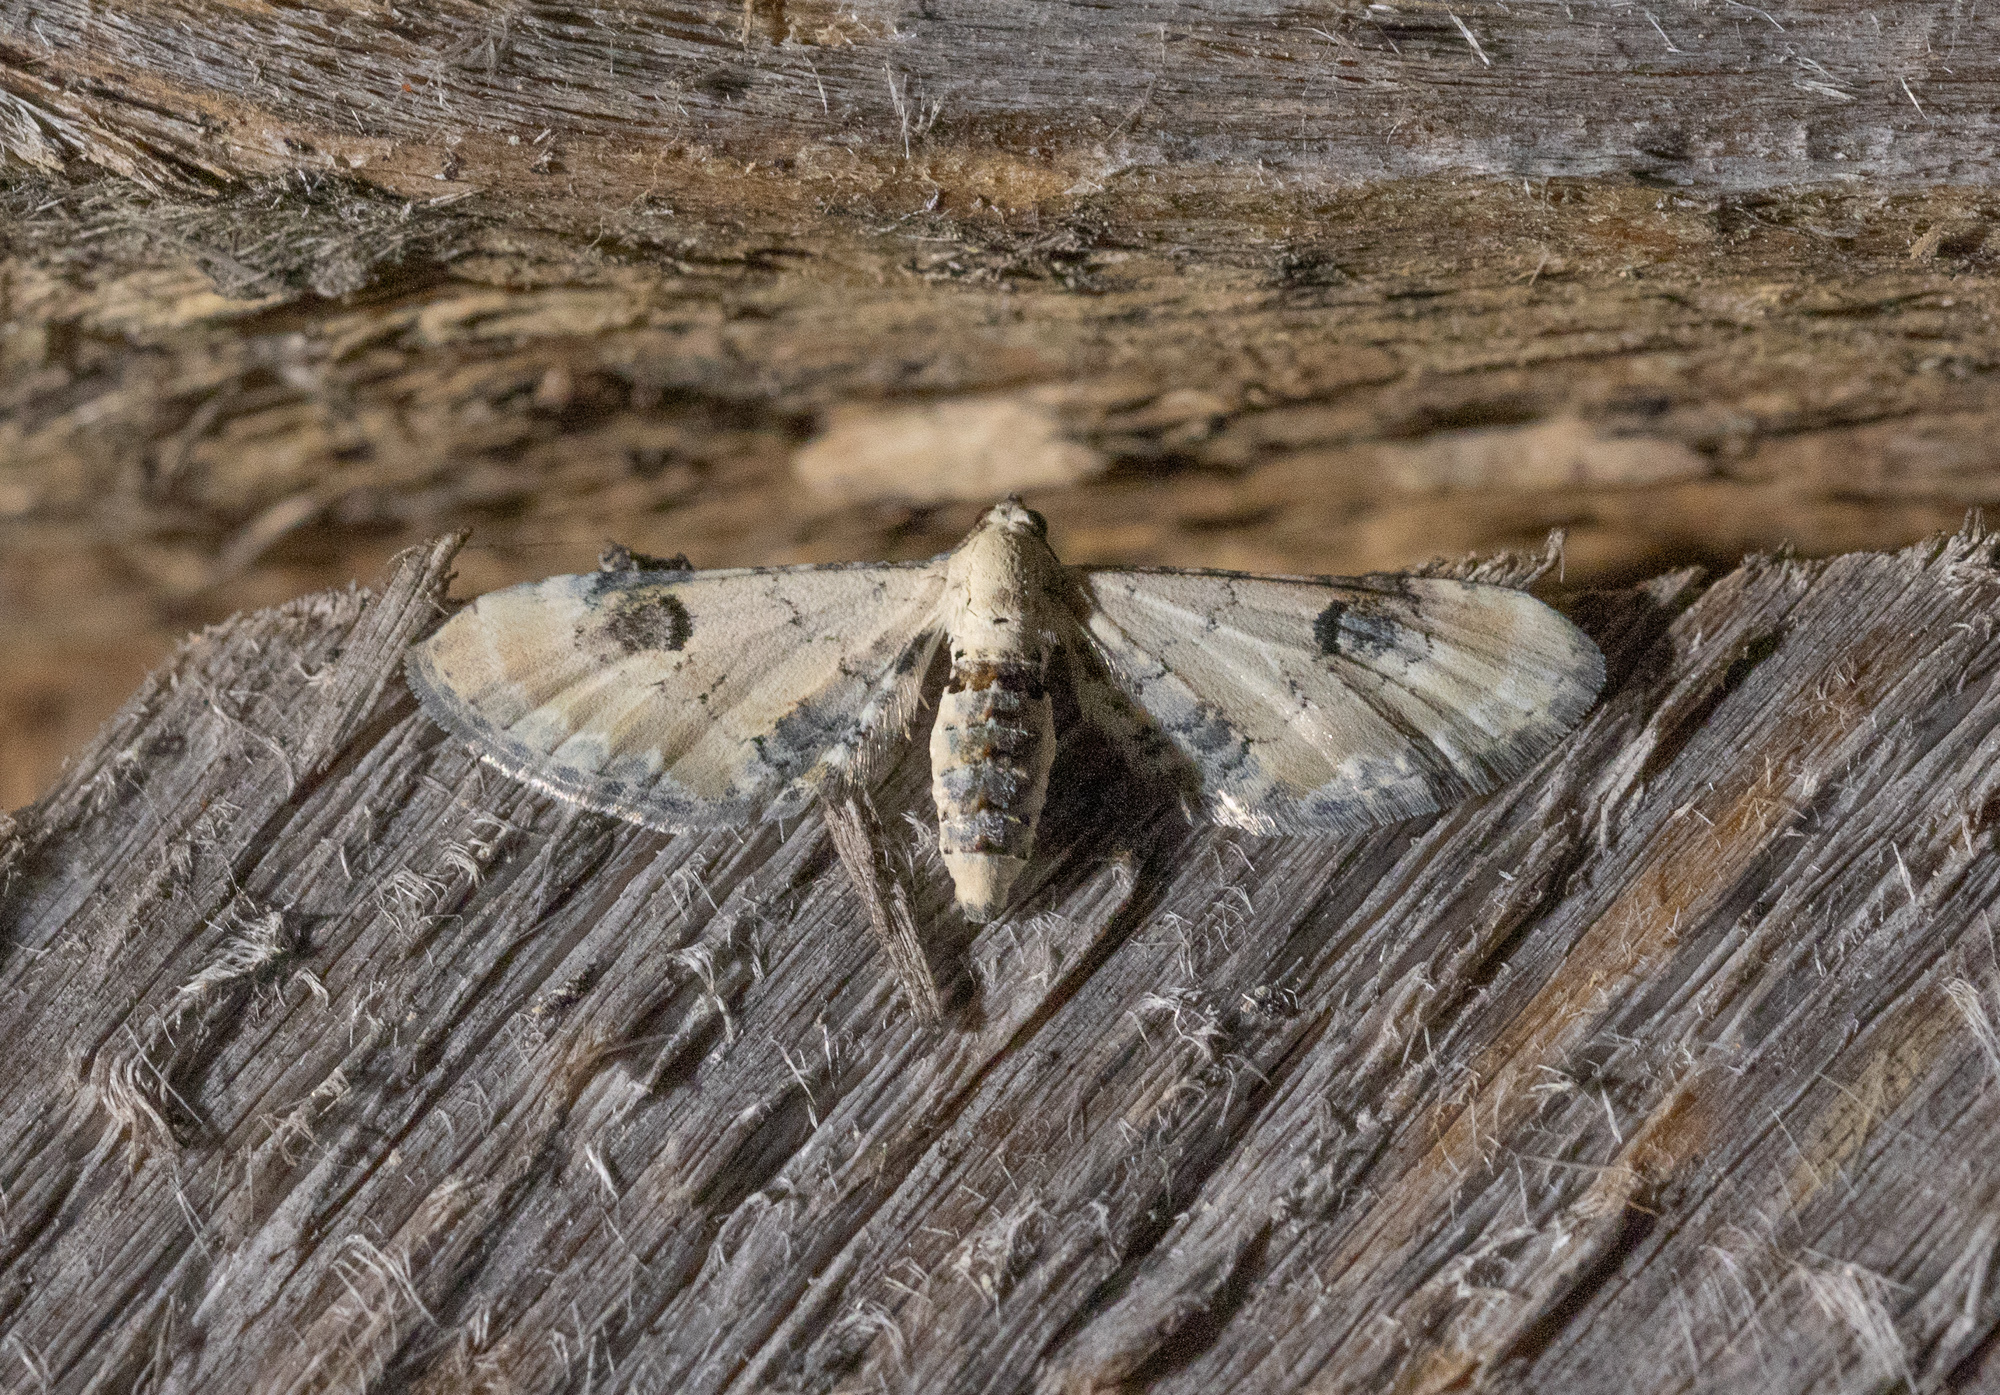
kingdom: Animalia
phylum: Arthropoda
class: Insecta
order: Lepidoptera
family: Geometridae
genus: Eupithecia
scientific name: Eupithecia centaureata
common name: Lime-speck pug
